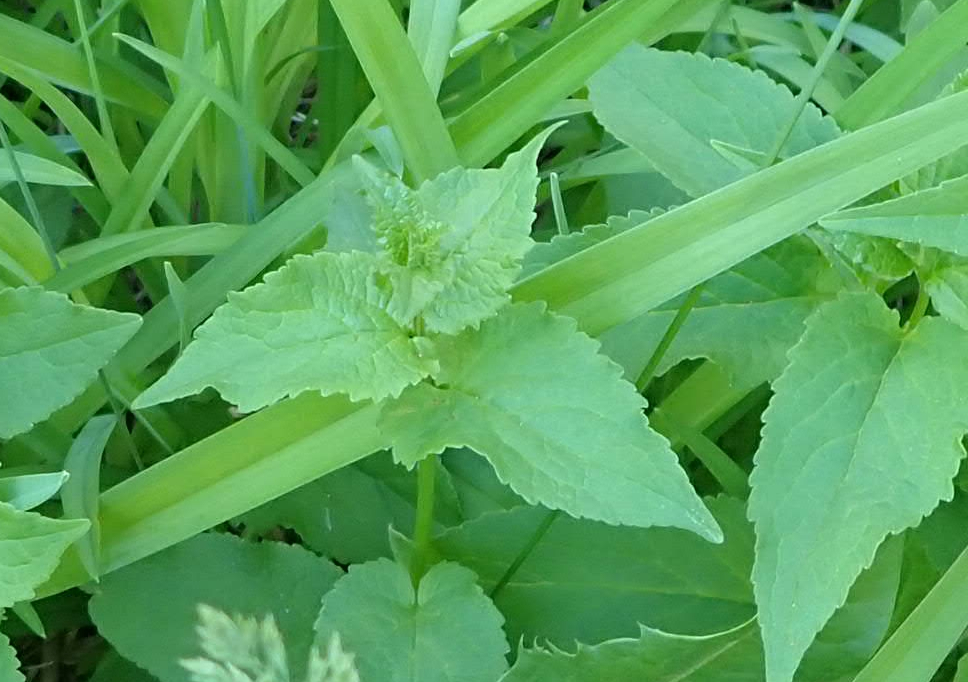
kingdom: Plantae
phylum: Tracheophyta
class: Magnoliopsida
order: Asterales
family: Campanulaceae
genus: Campanula
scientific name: Campanula rapunculoides
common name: Creeping bellflower
